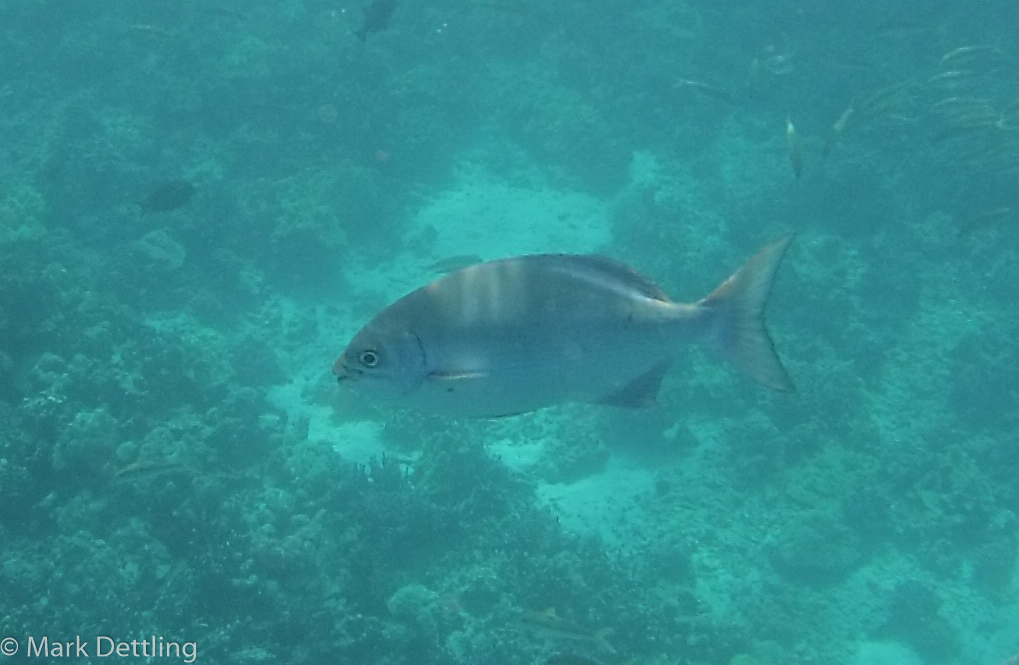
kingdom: Animalia
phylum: Chordata
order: Perciformes
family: Kyphosidae
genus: Kyphosus
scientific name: Kyphosus elegans
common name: Cortez chub
